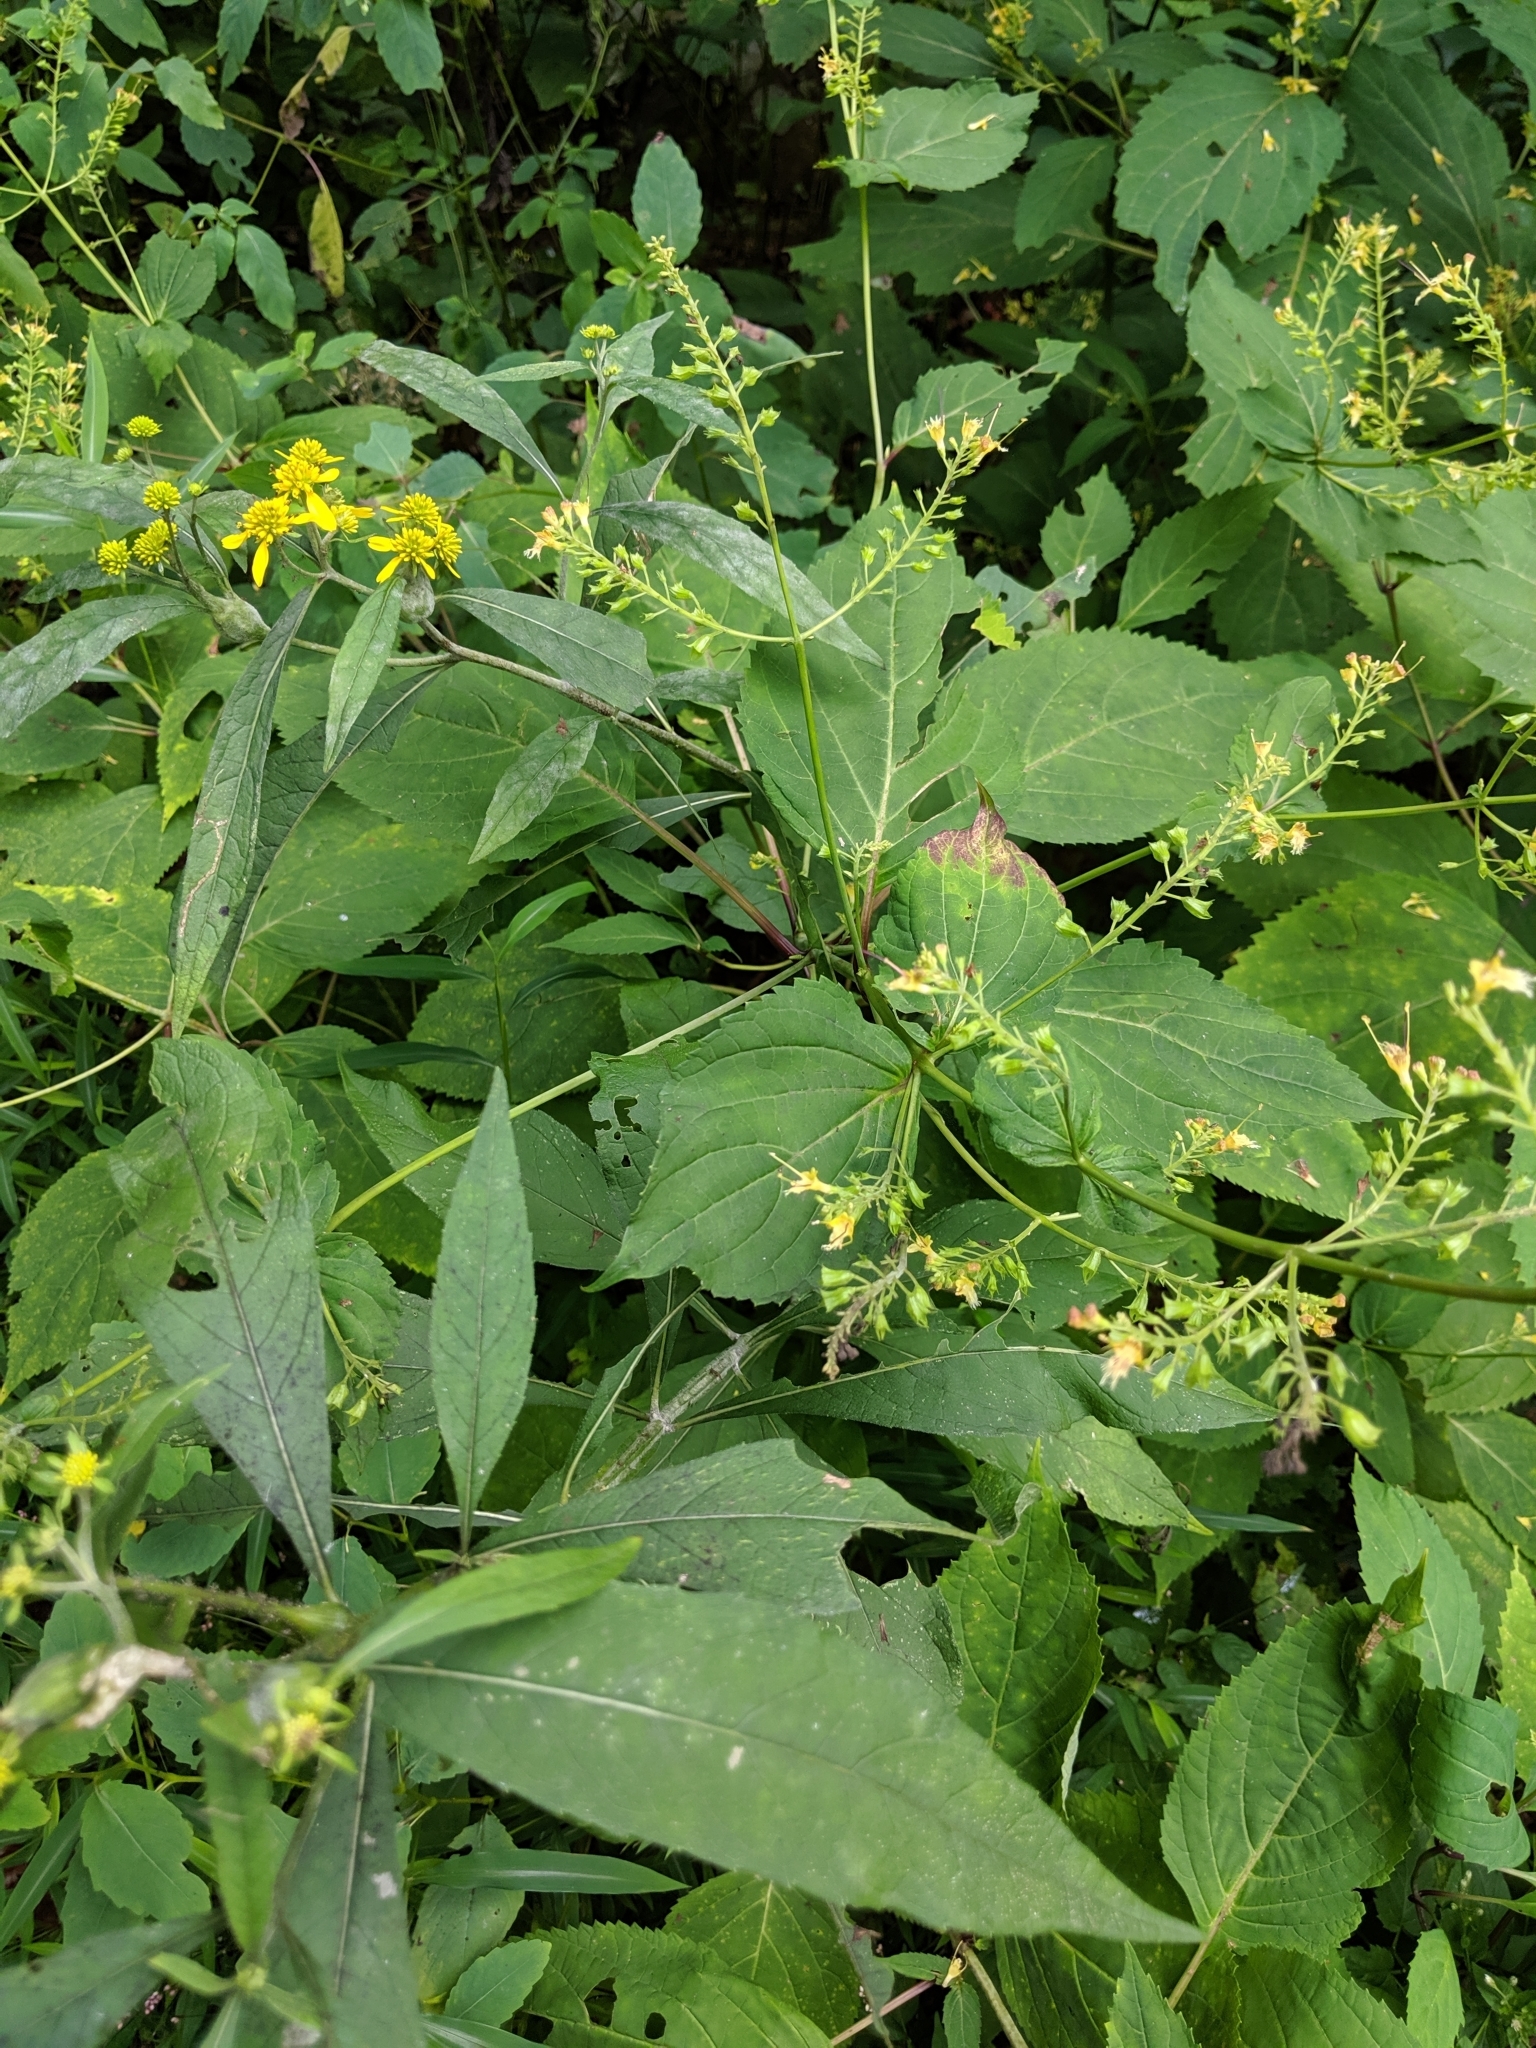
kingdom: Plantae
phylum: Tracheophyta
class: Magnoliopsida
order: Asterales
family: Asteraceae
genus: Verbesina
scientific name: Verbesina alternifolia
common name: Wingstem
